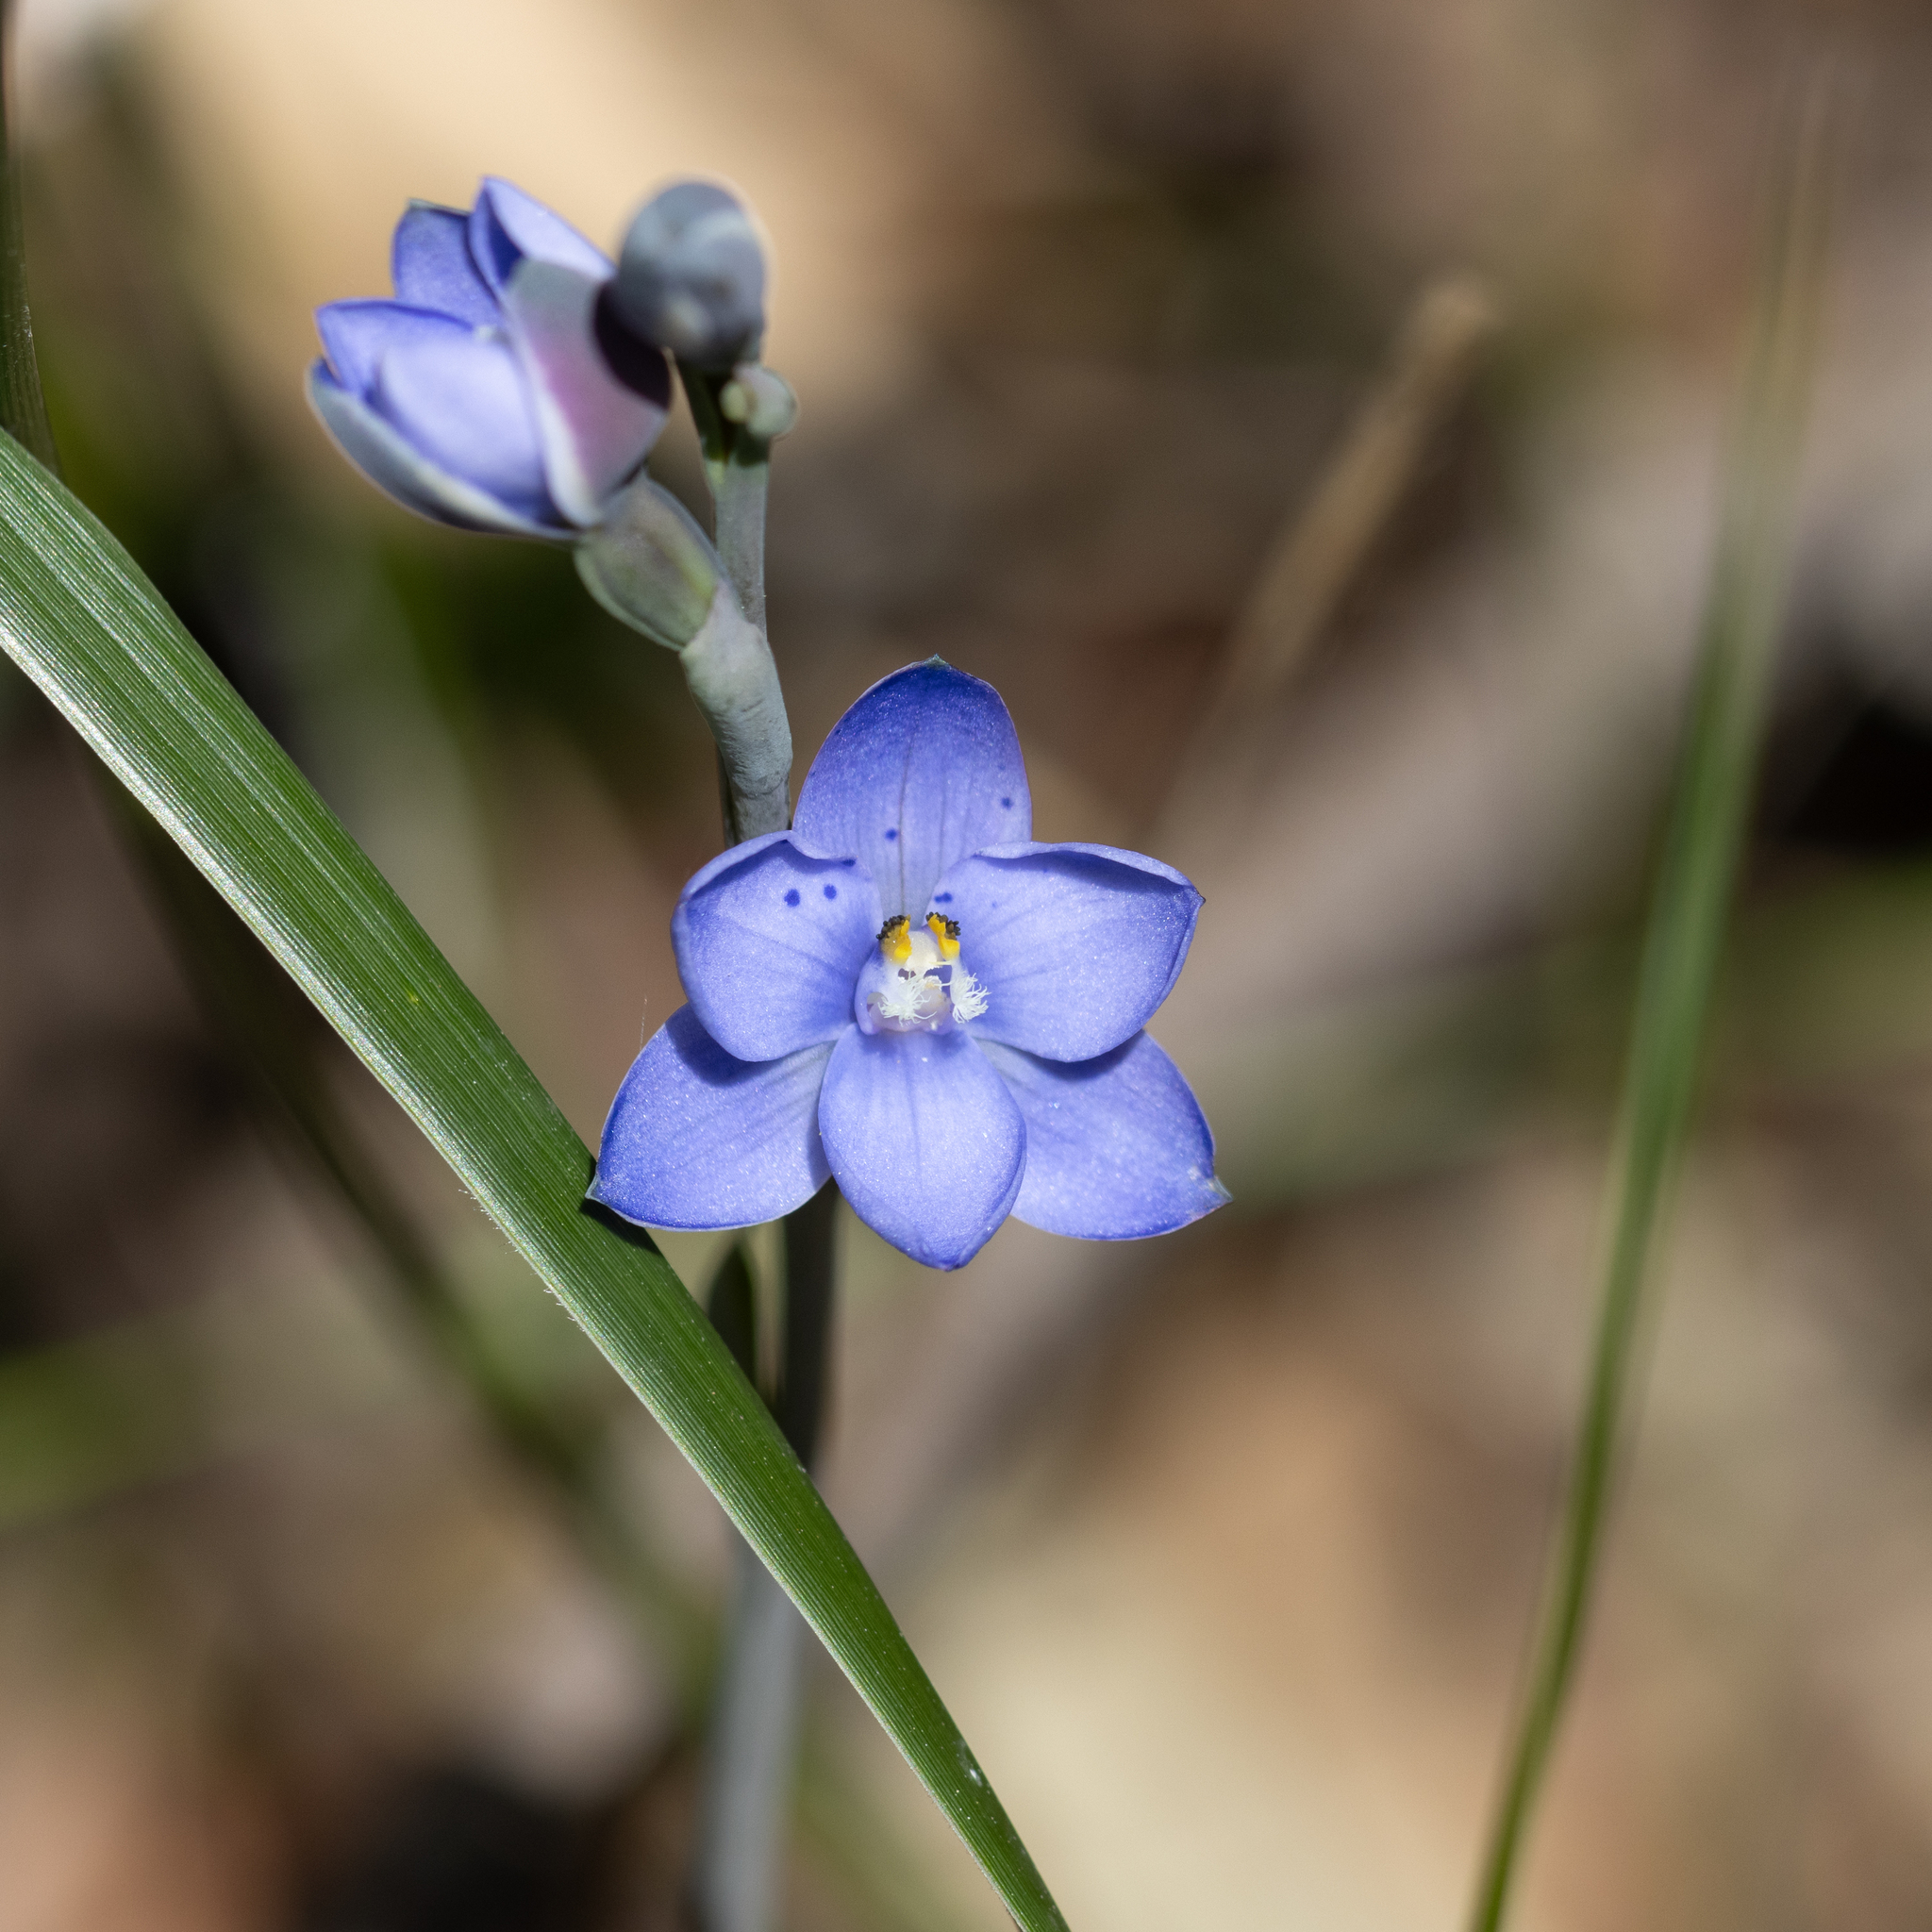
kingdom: Plantae
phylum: Tracheophyta
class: Liliopsida
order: Asparagales
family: Orchidaceae
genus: Thelymitra
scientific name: Thelymitra ixioides
